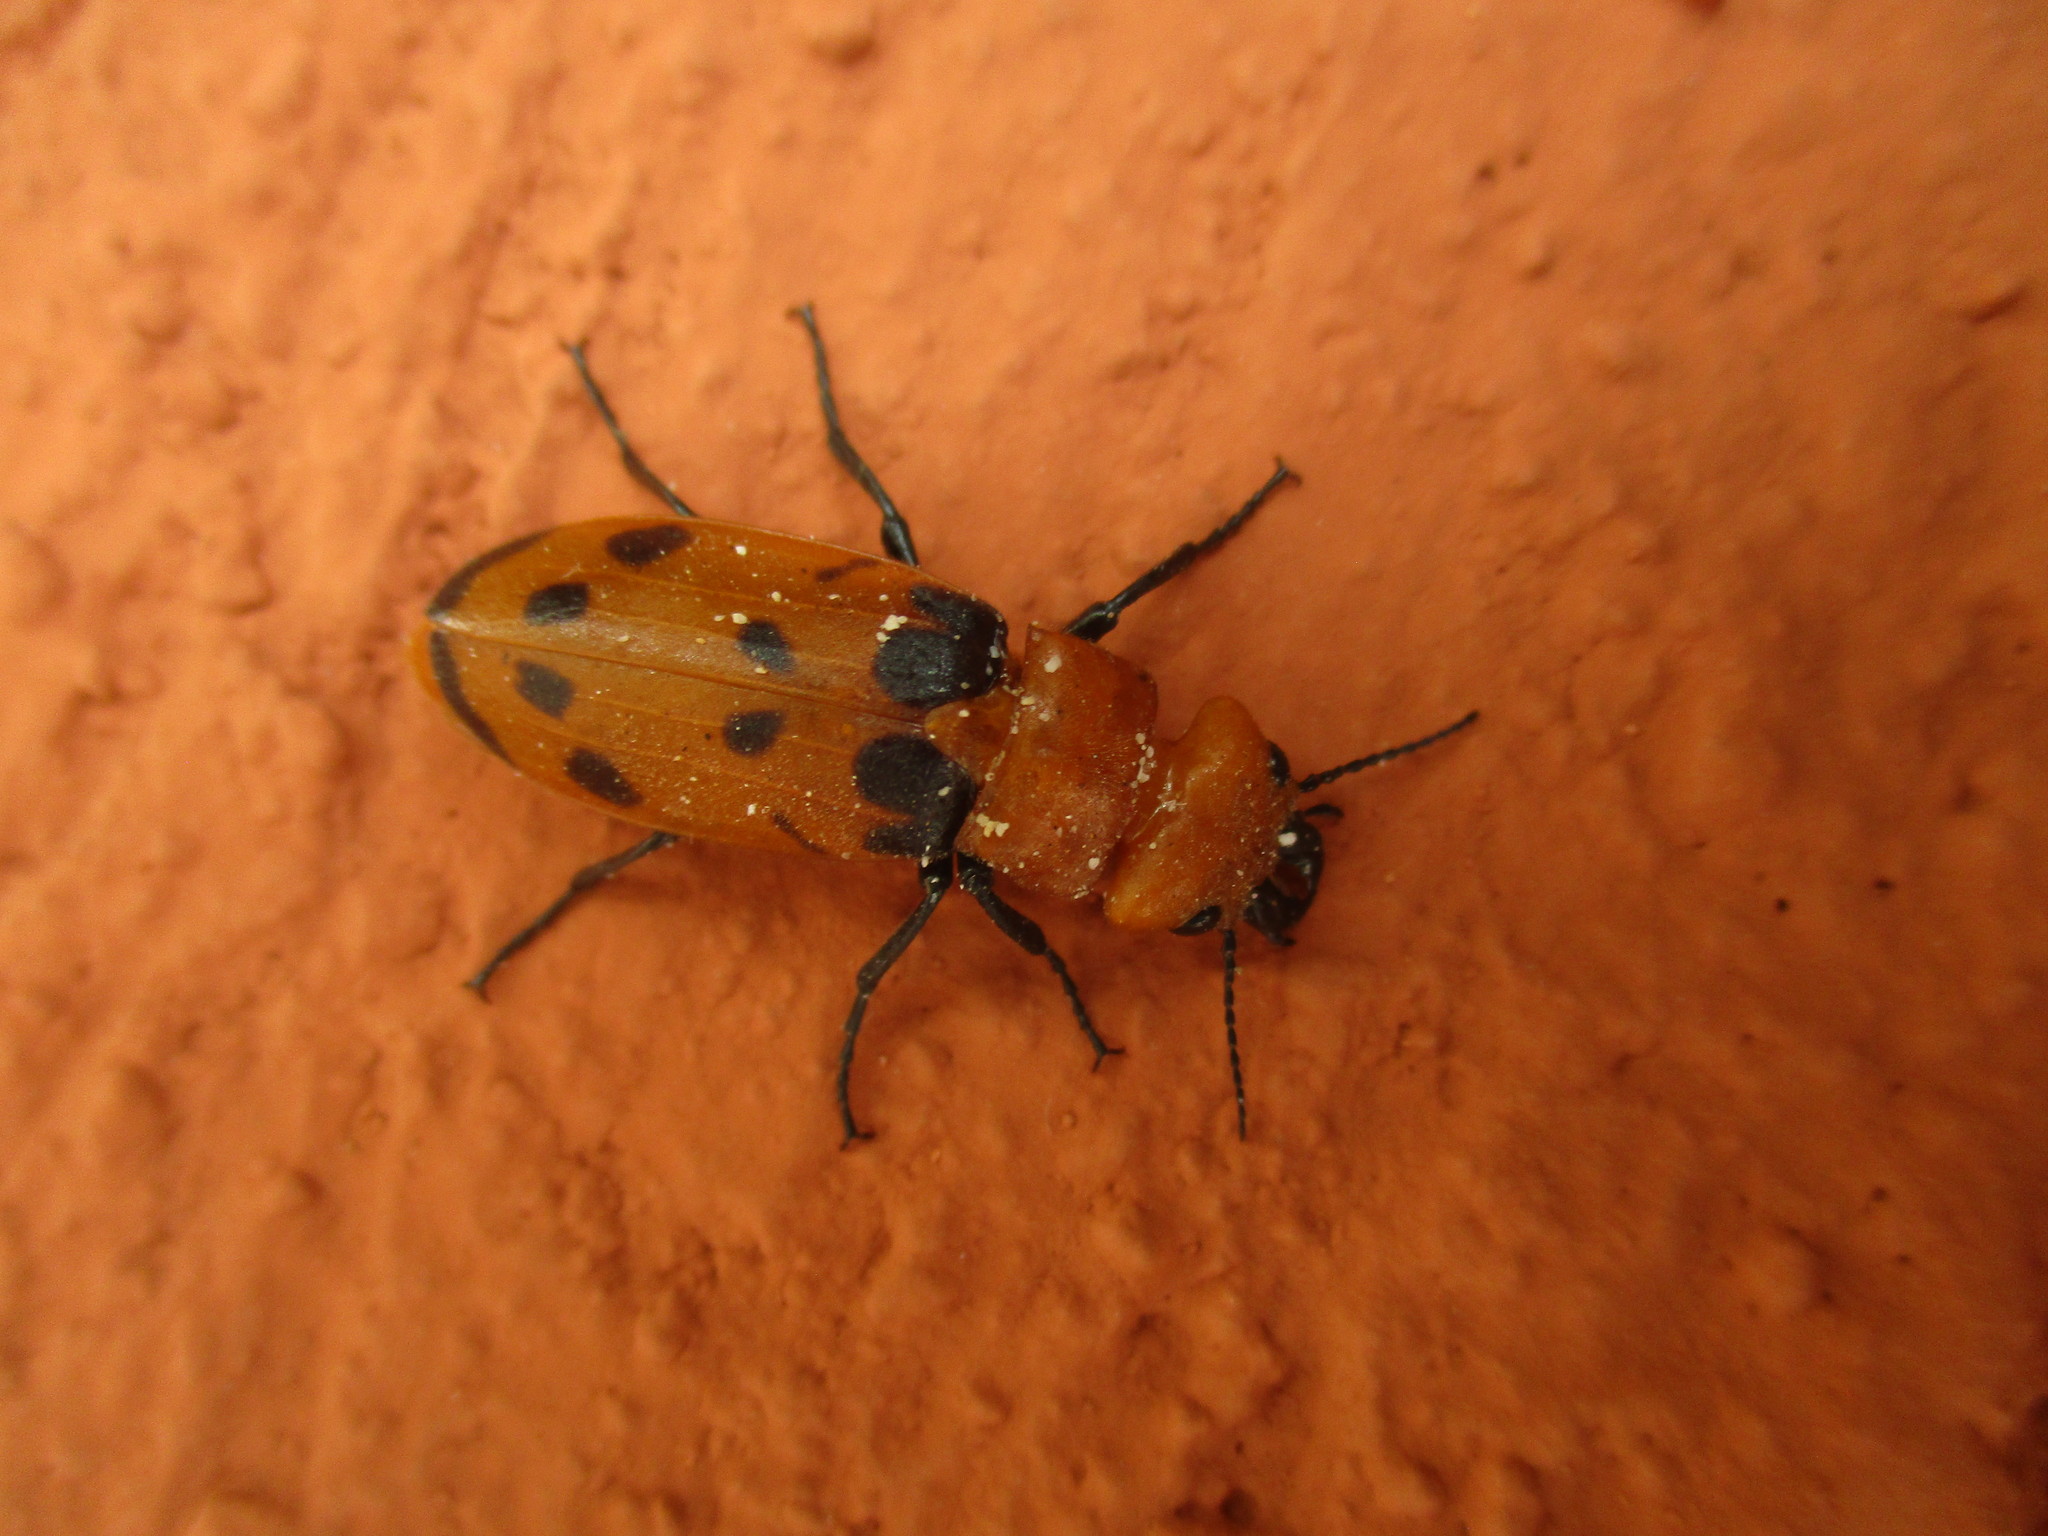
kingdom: Animalia
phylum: Arthropoda
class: Insecta
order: Coleoptera
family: Meloidae
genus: Cissites
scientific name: Cissites maculata
